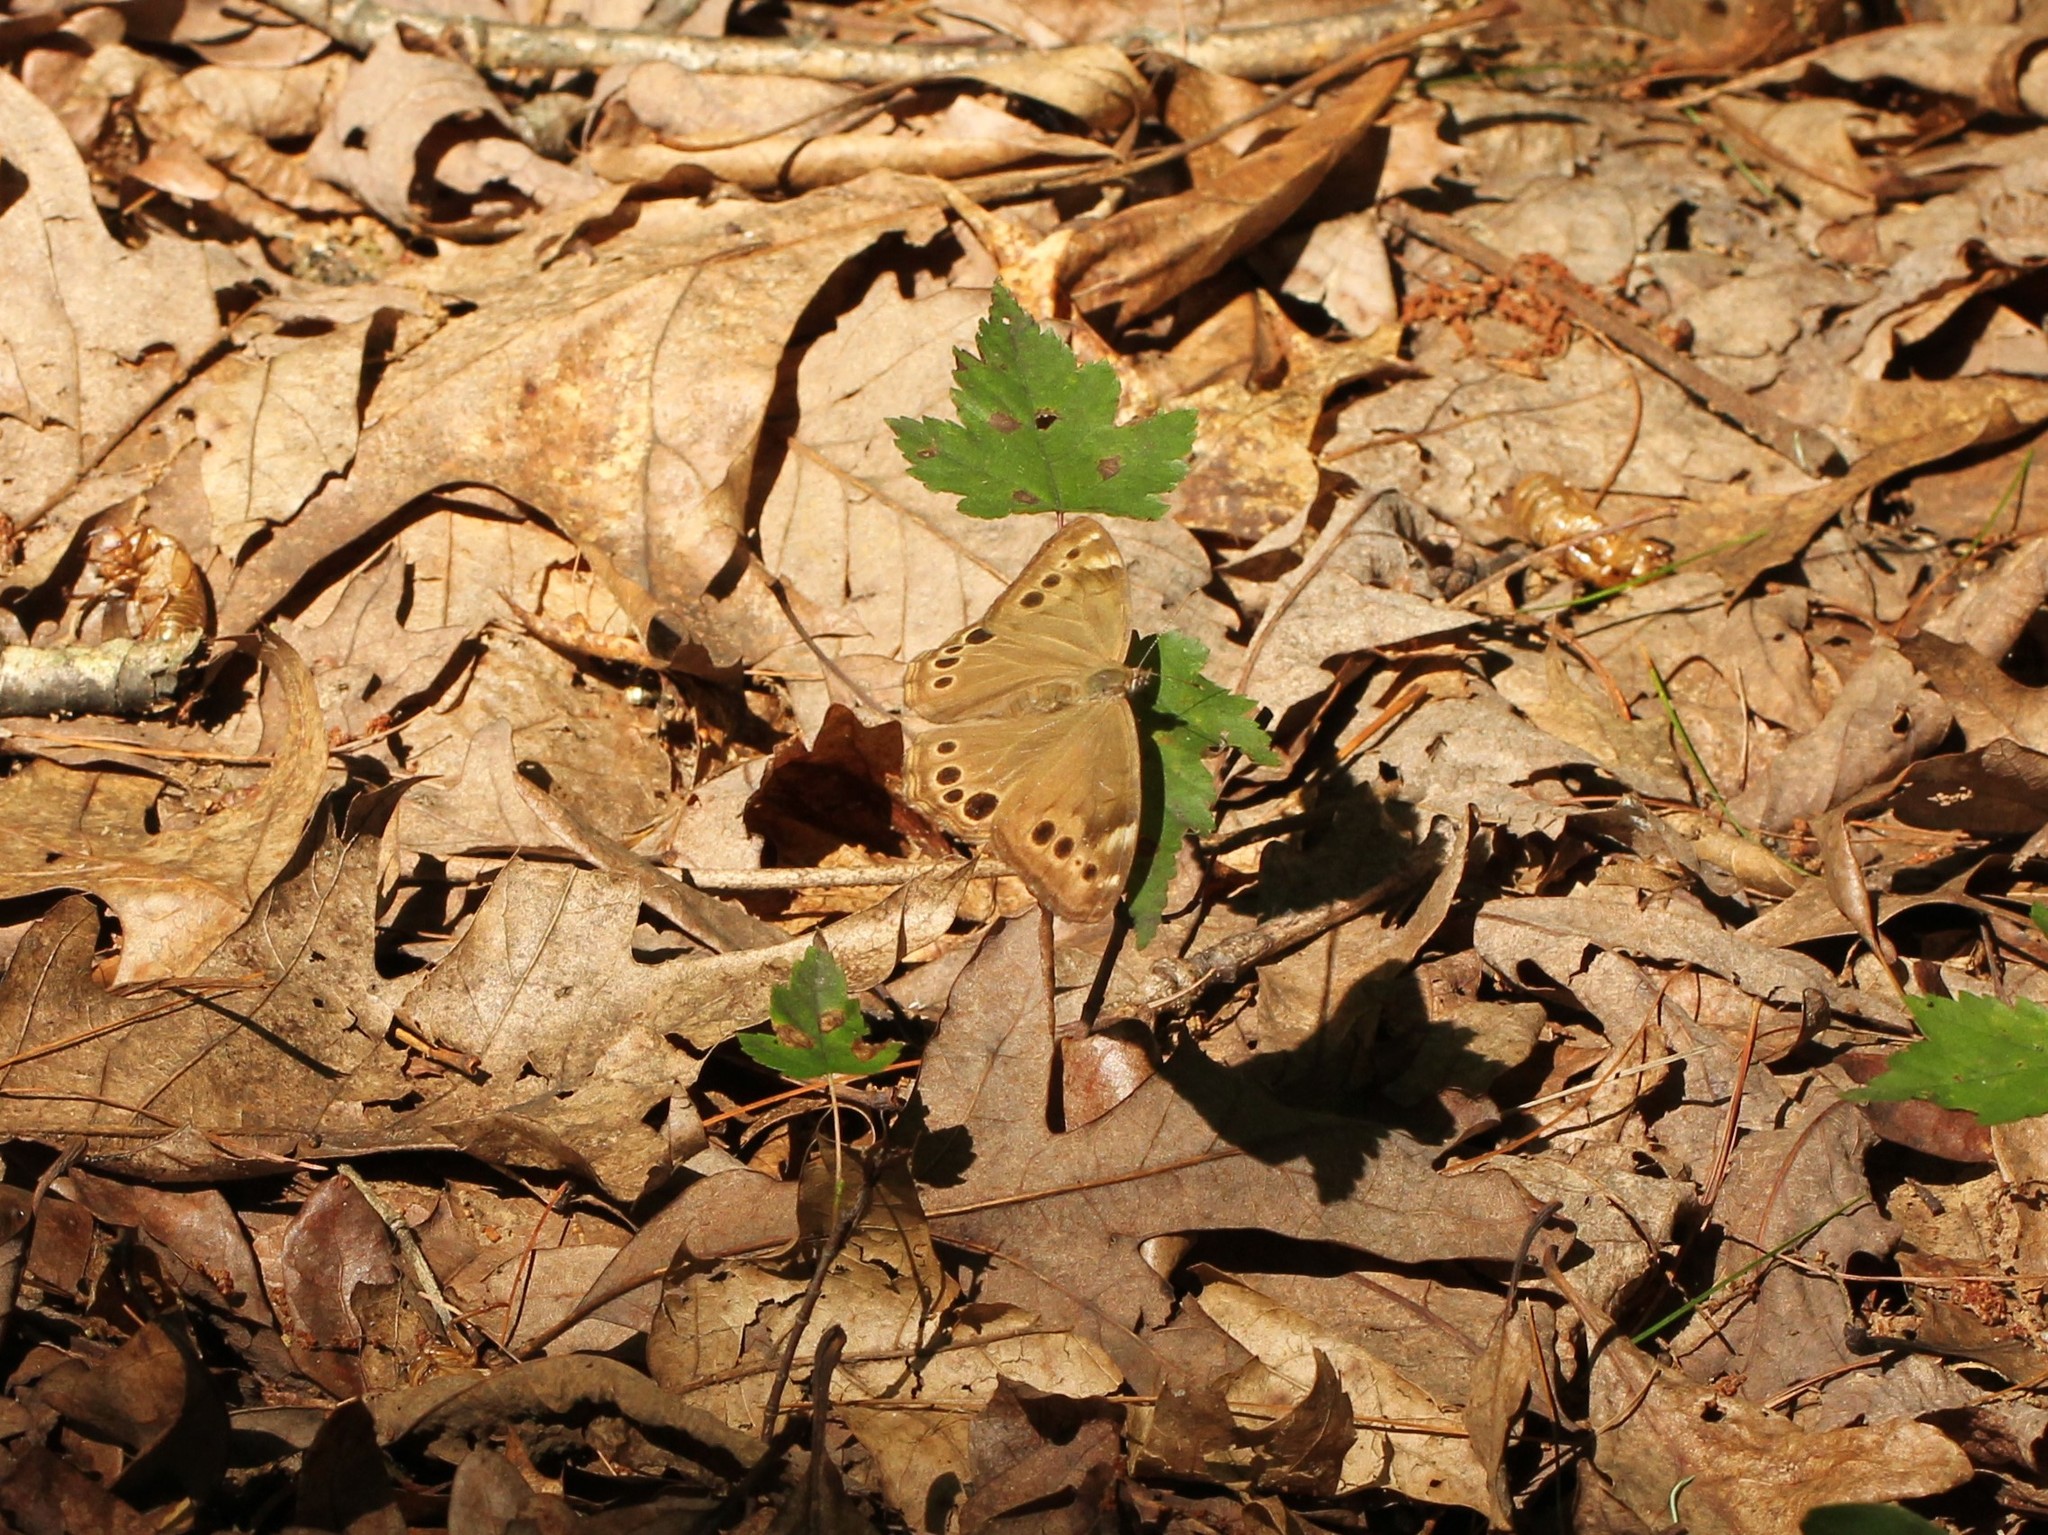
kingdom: Animalia
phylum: Arthropoda
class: Insecta
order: Lepidoptera
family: Nymphalidae
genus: Lethe
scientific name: Lethe anthedon
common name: Northern pearly-eye
